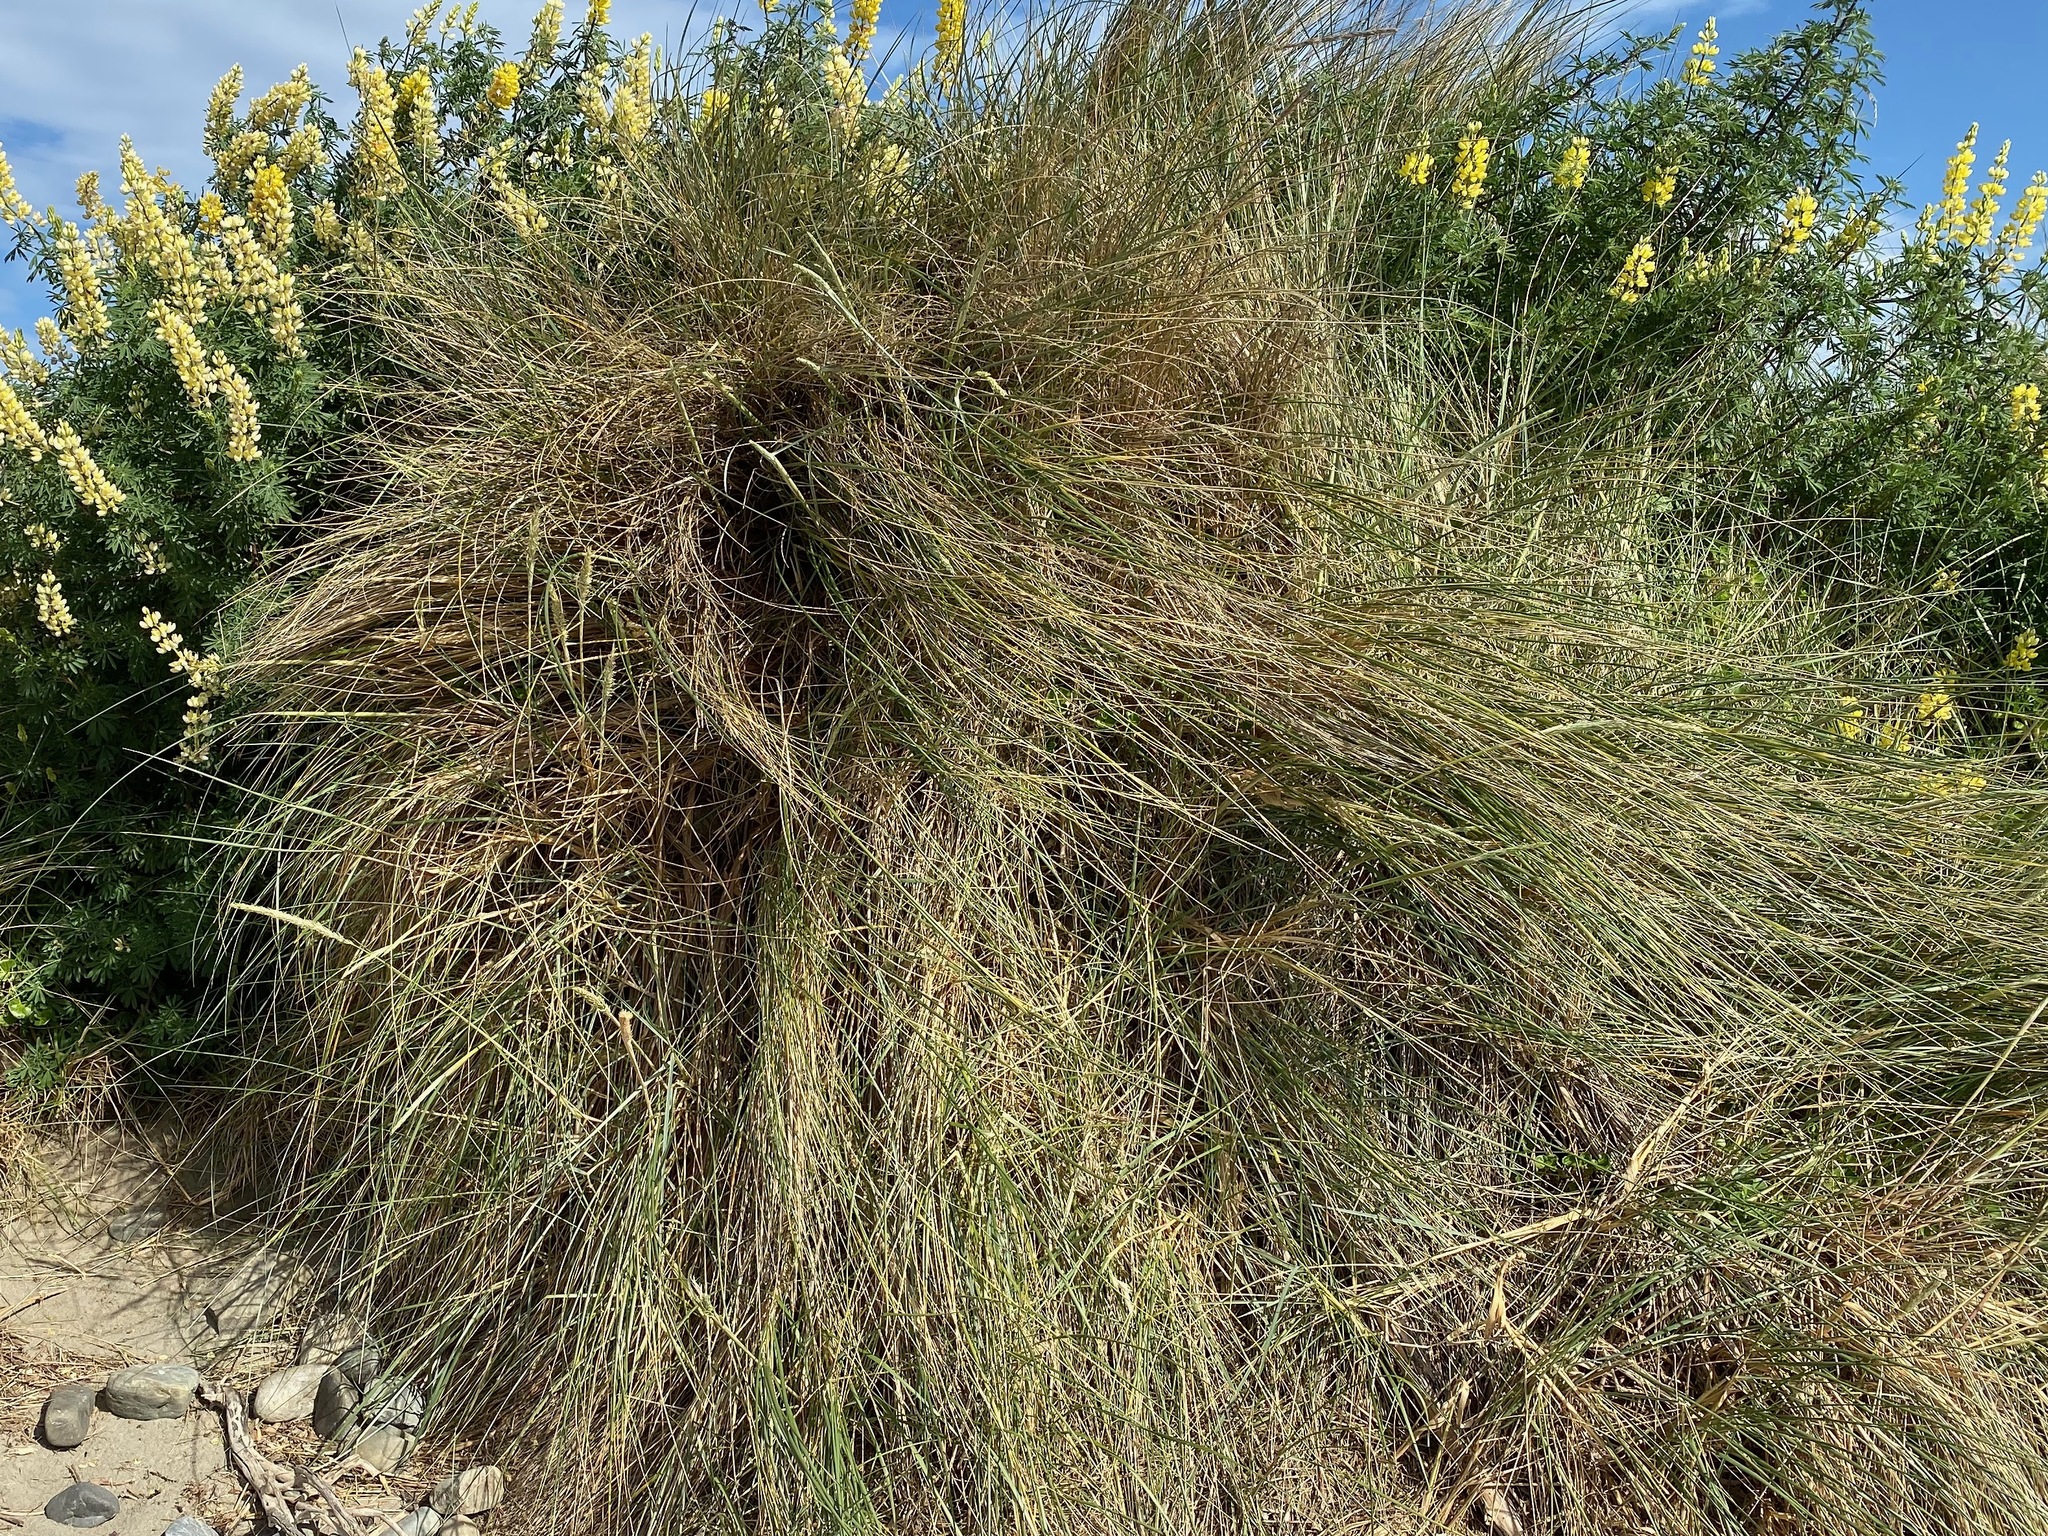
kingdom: Plantae
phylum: Tracheophyta
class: Liliopsida
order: Poales
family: Poaceae
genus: Calamagrostis
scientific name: Calamagrostis arenaria
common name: European beachgrass
